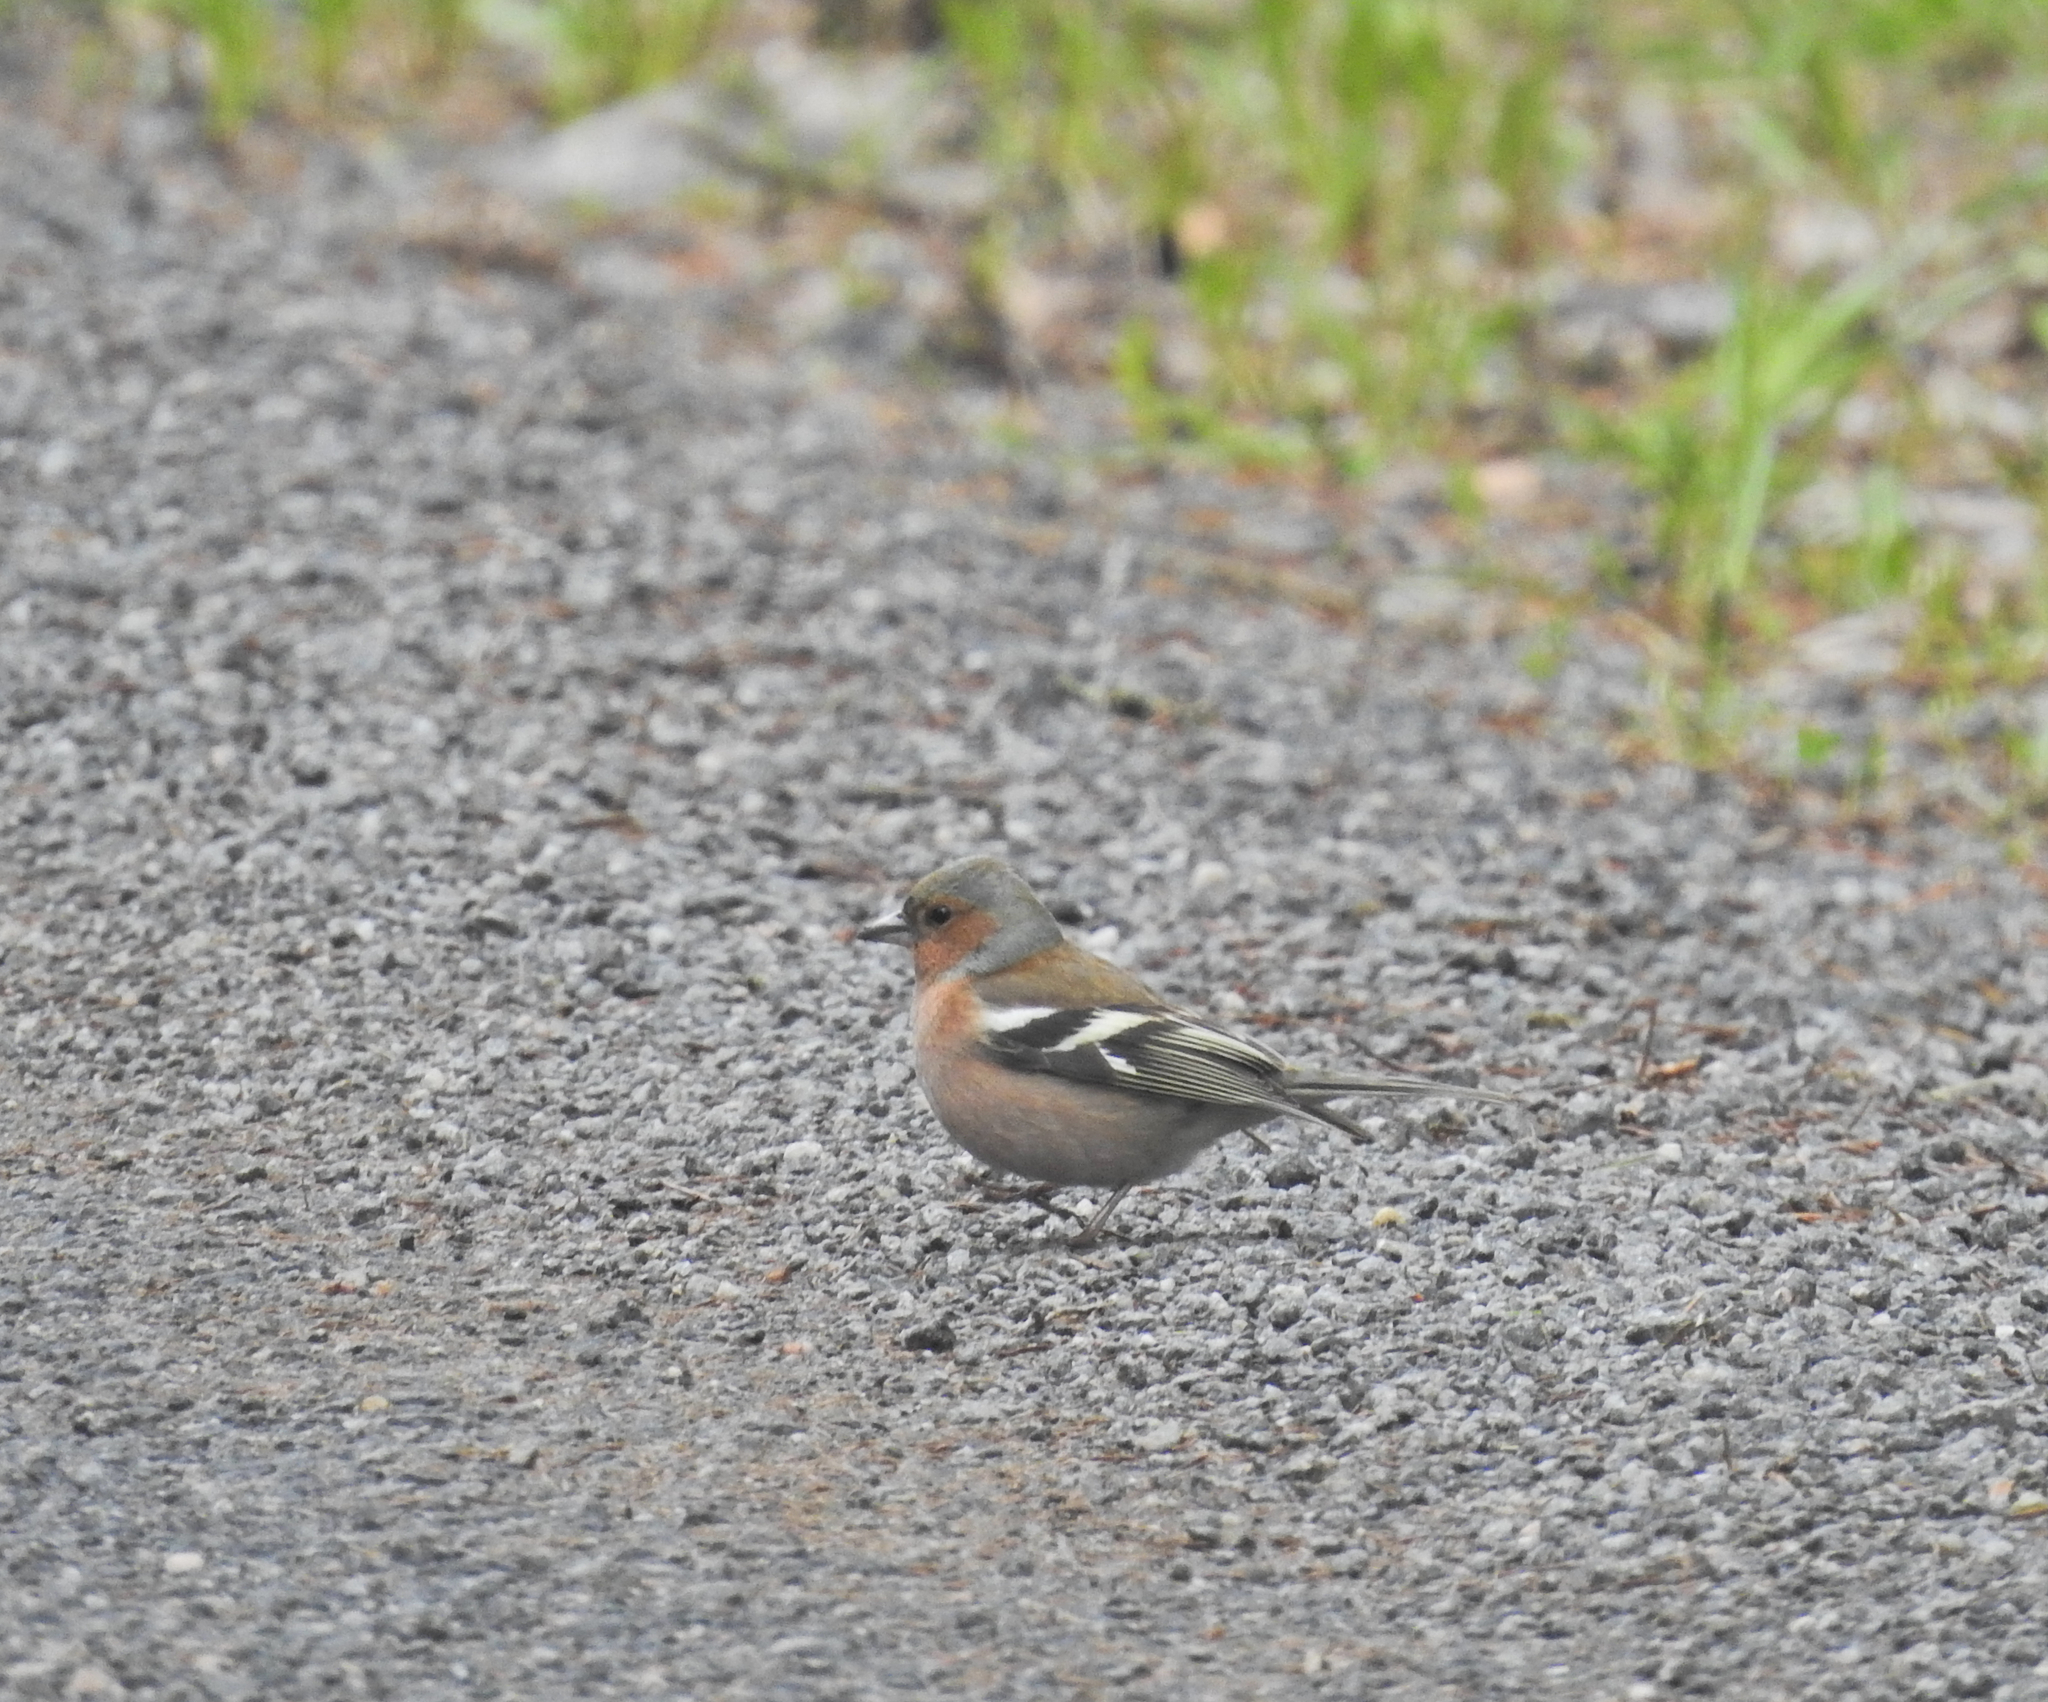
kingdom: Animalia
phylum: Chordata
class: Aves
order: Passeriformes
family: Fringillidae
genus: Fringilla
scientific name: Fringilla coelebs
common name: Common chaffinch
